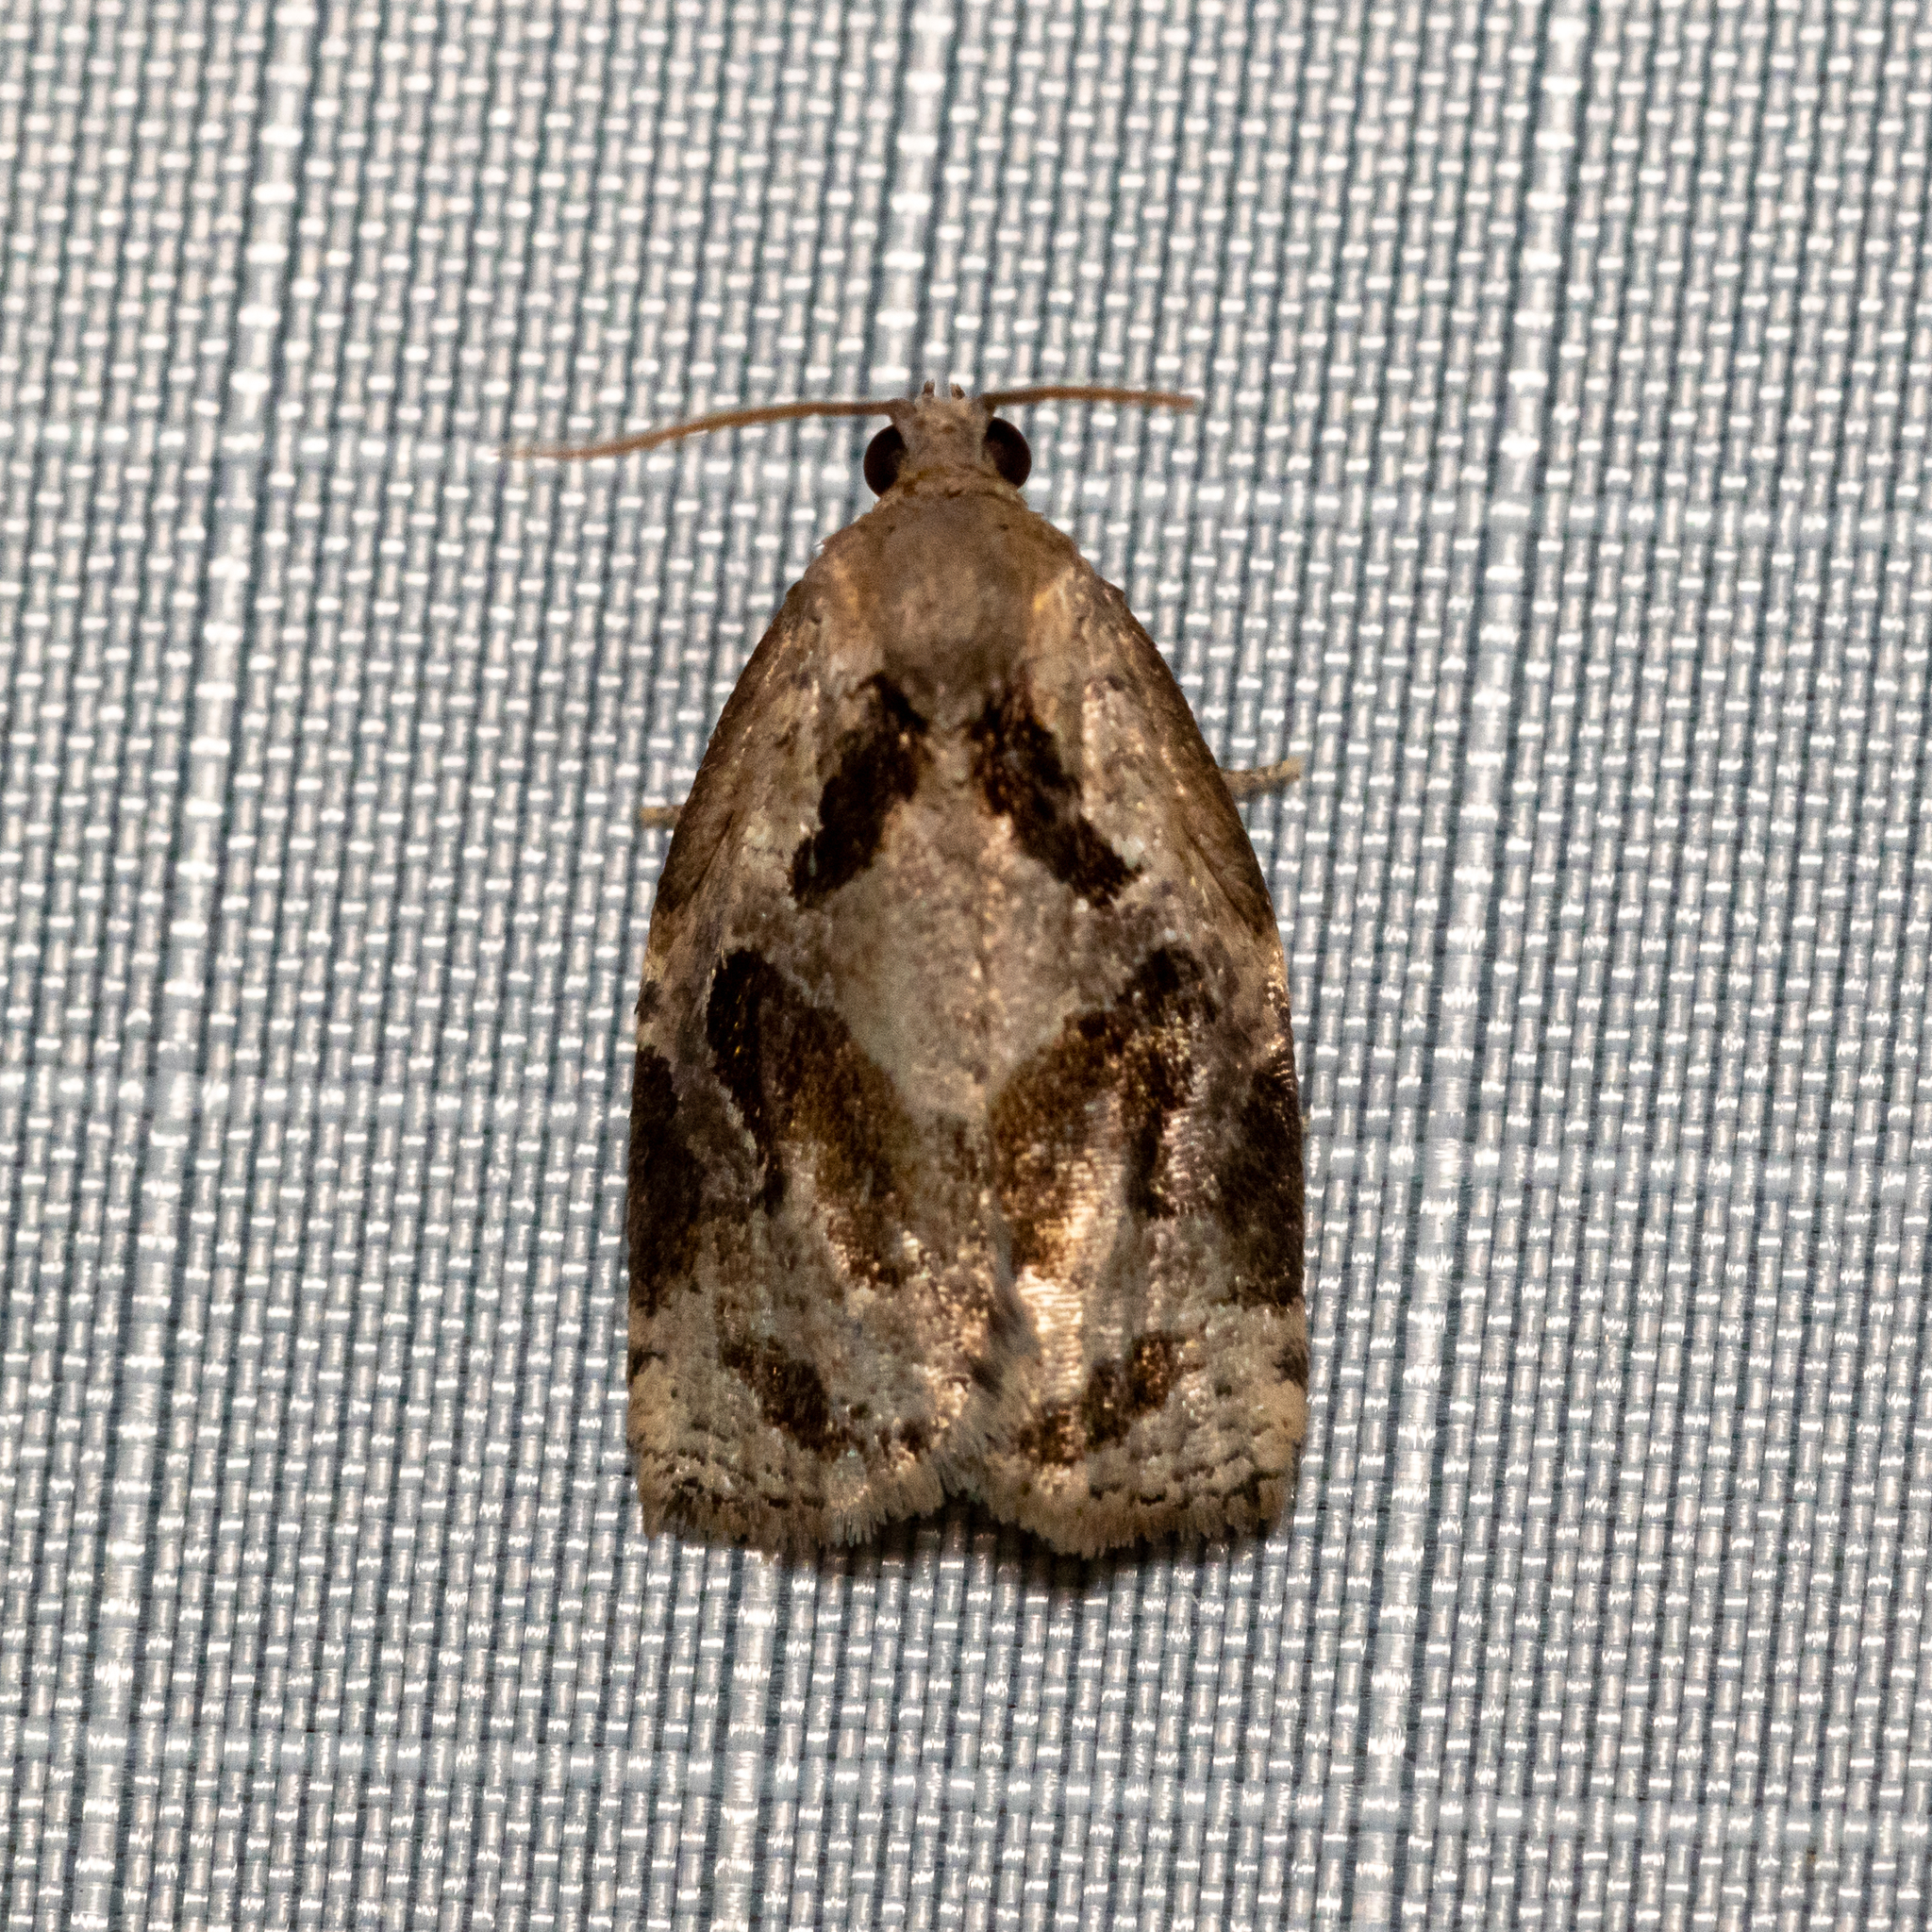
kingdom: Animalia
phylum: Arthropoda
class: Insecta
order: Lepidoptera
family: Tortricidae
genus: Archips
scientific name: Archips grisea
